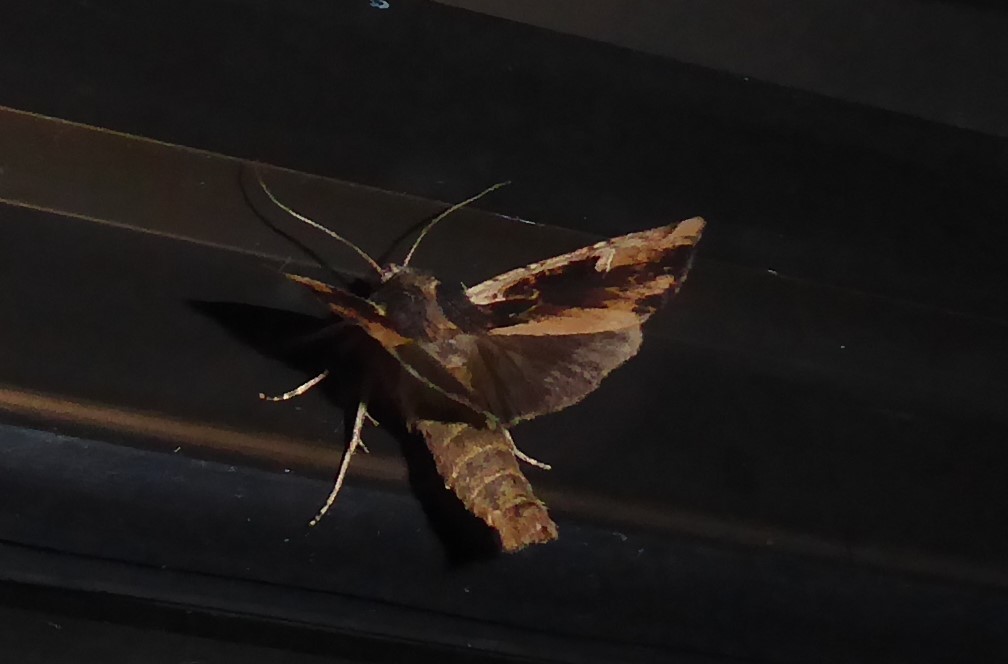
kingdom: Animalia
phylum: Arthropoda
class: Insecta
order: Lepidoptera
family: Noctuidae
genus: Ichneutica
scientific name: Ichneutica omoplaca
